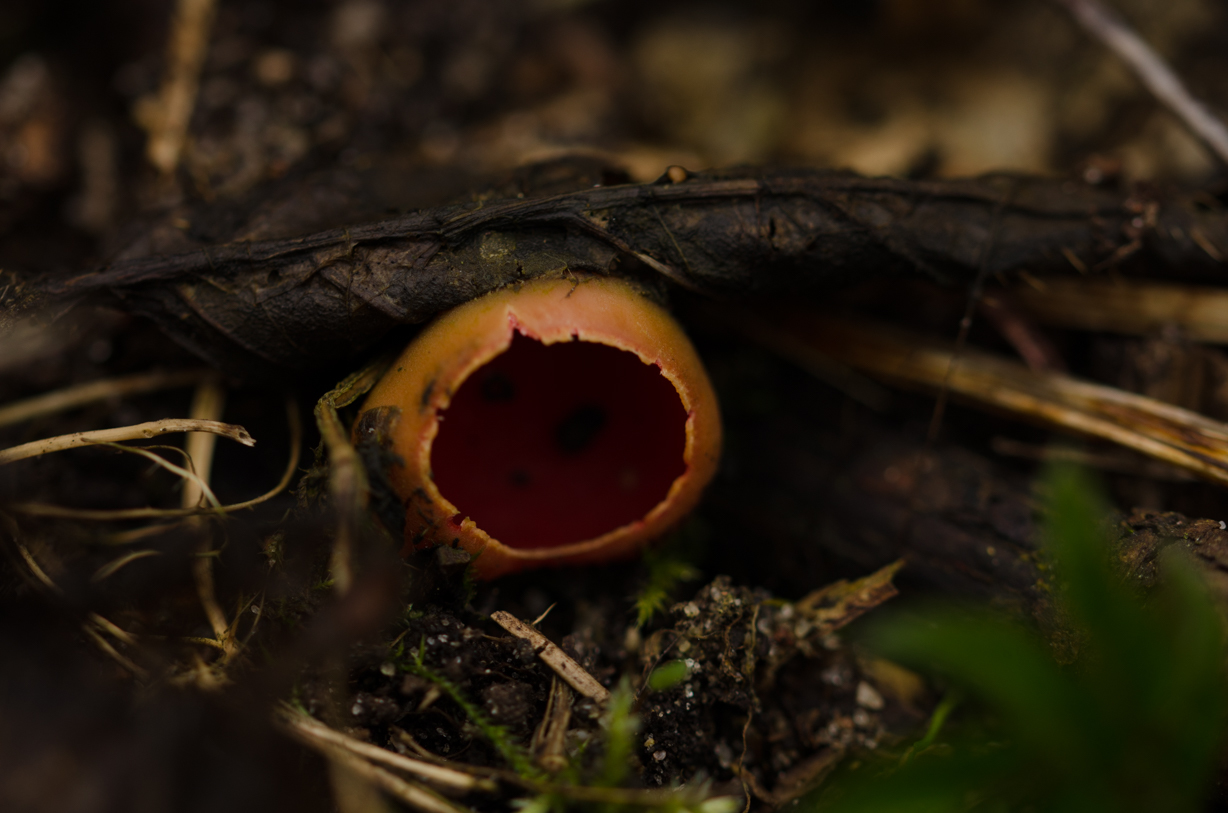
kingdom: Fungi
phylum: Ascomycota
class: Pezizomycetes
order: Pezizales
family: Sarcoscyphaceae
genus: Sarcoscypha
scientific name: Sarcoscypha
